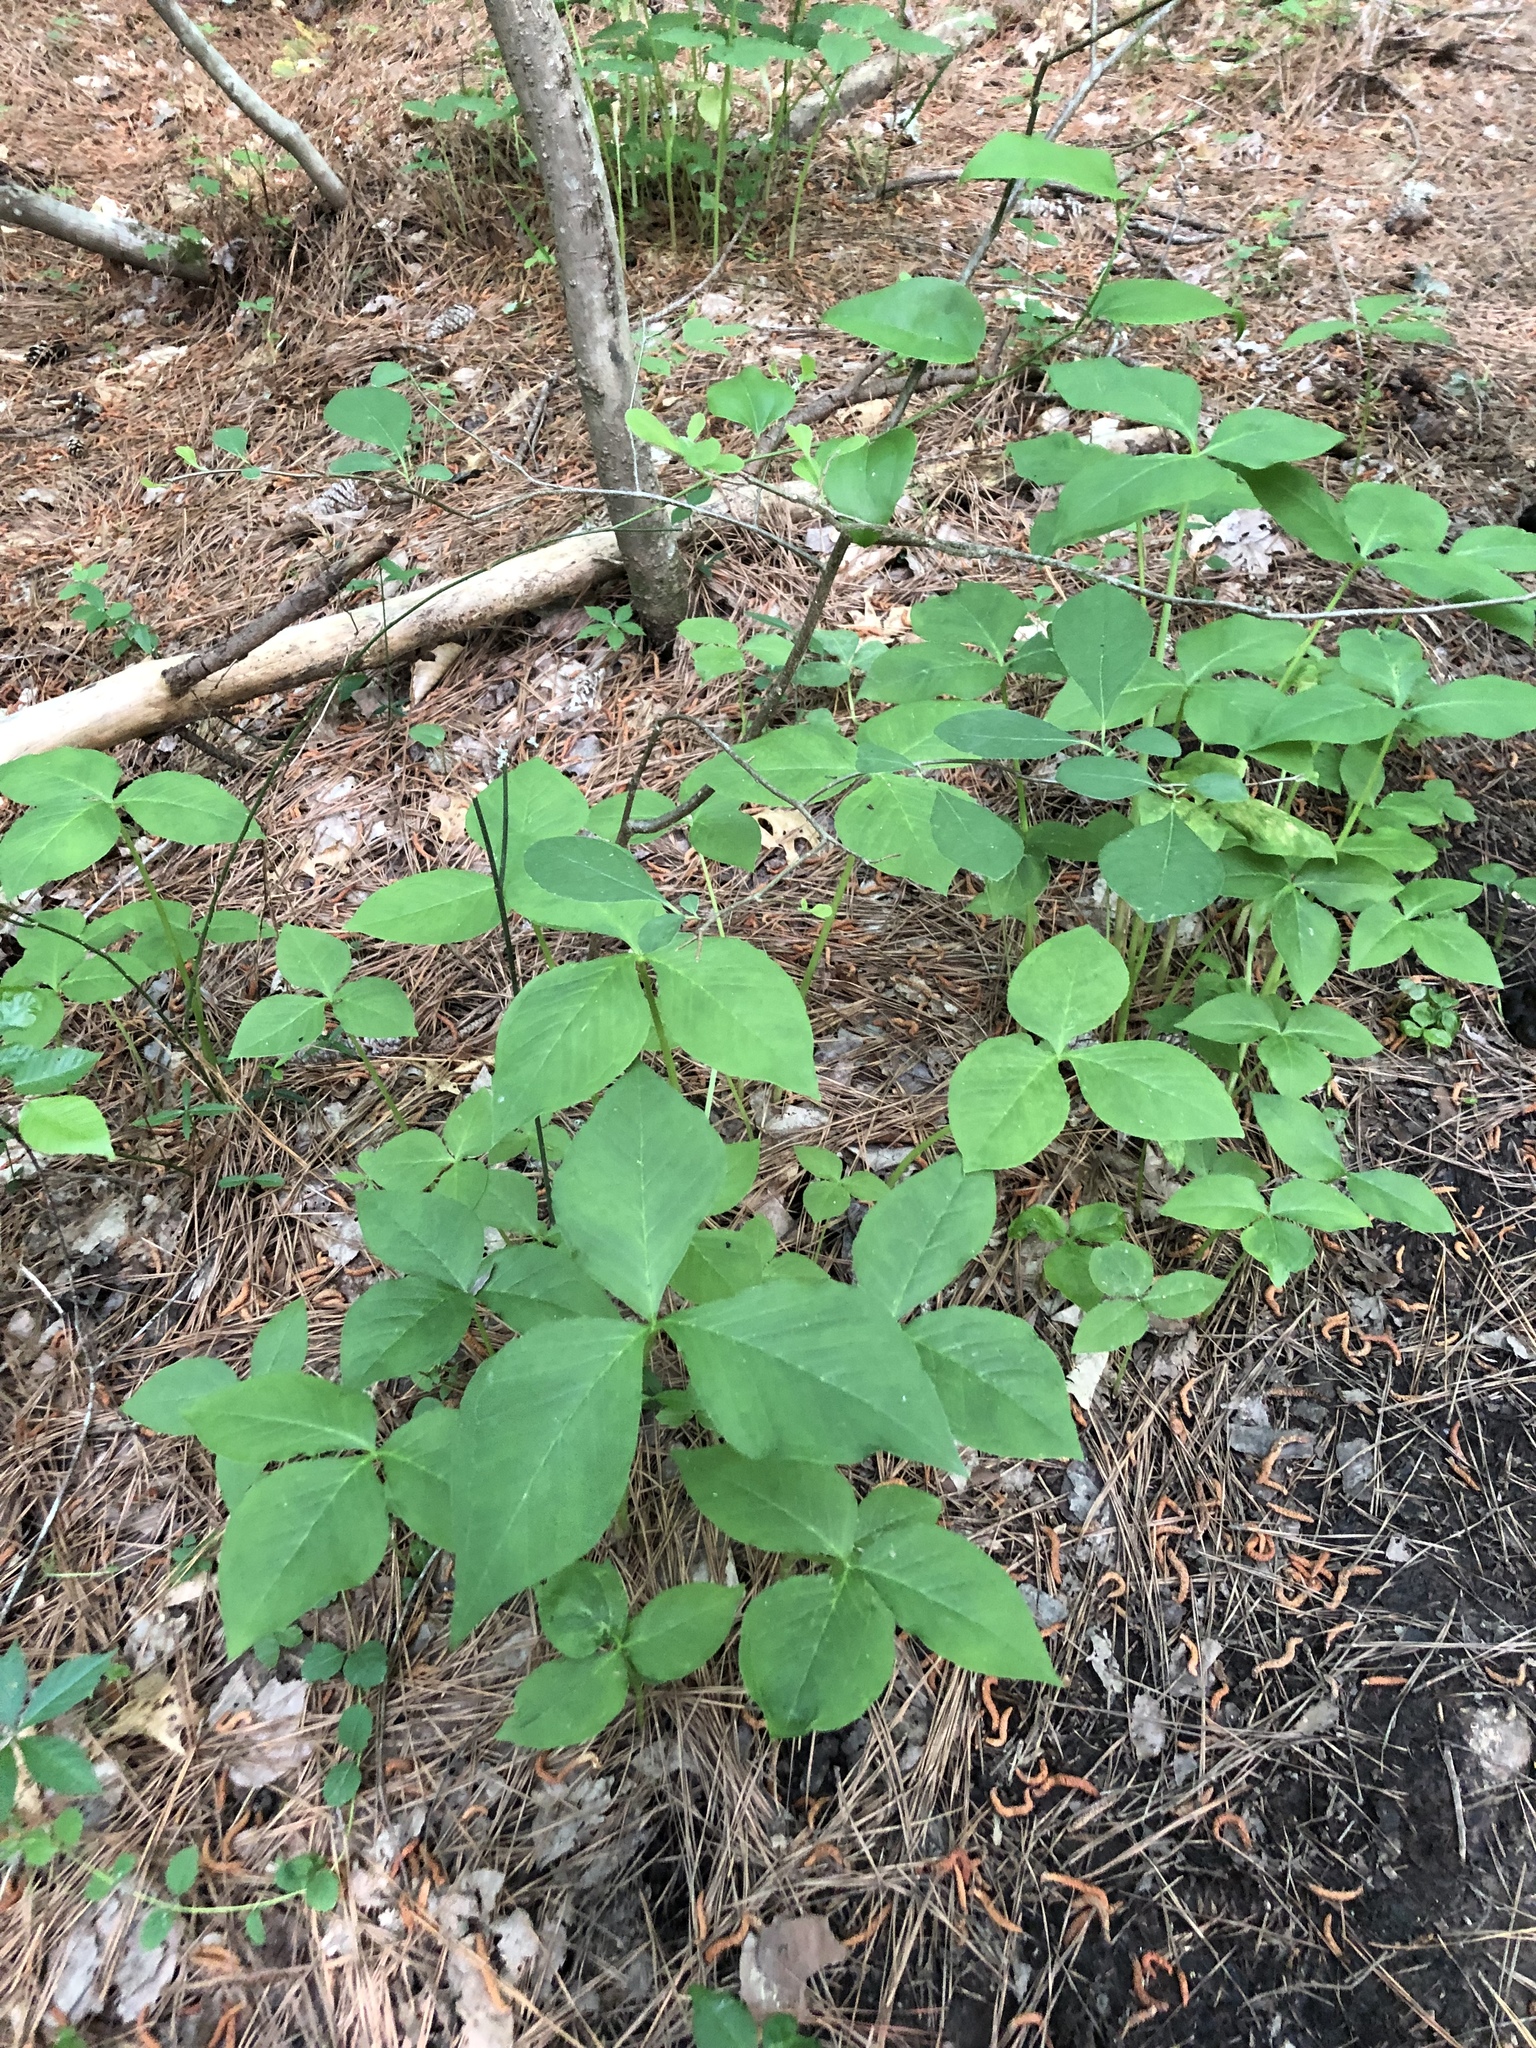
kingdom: Plantae
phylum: Tracheophyta
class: Liliopsida
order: Alismatales
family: Araceae
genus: Arisaema
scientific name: Arisaema triphyllum
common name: Jack-in-the-pulpit
